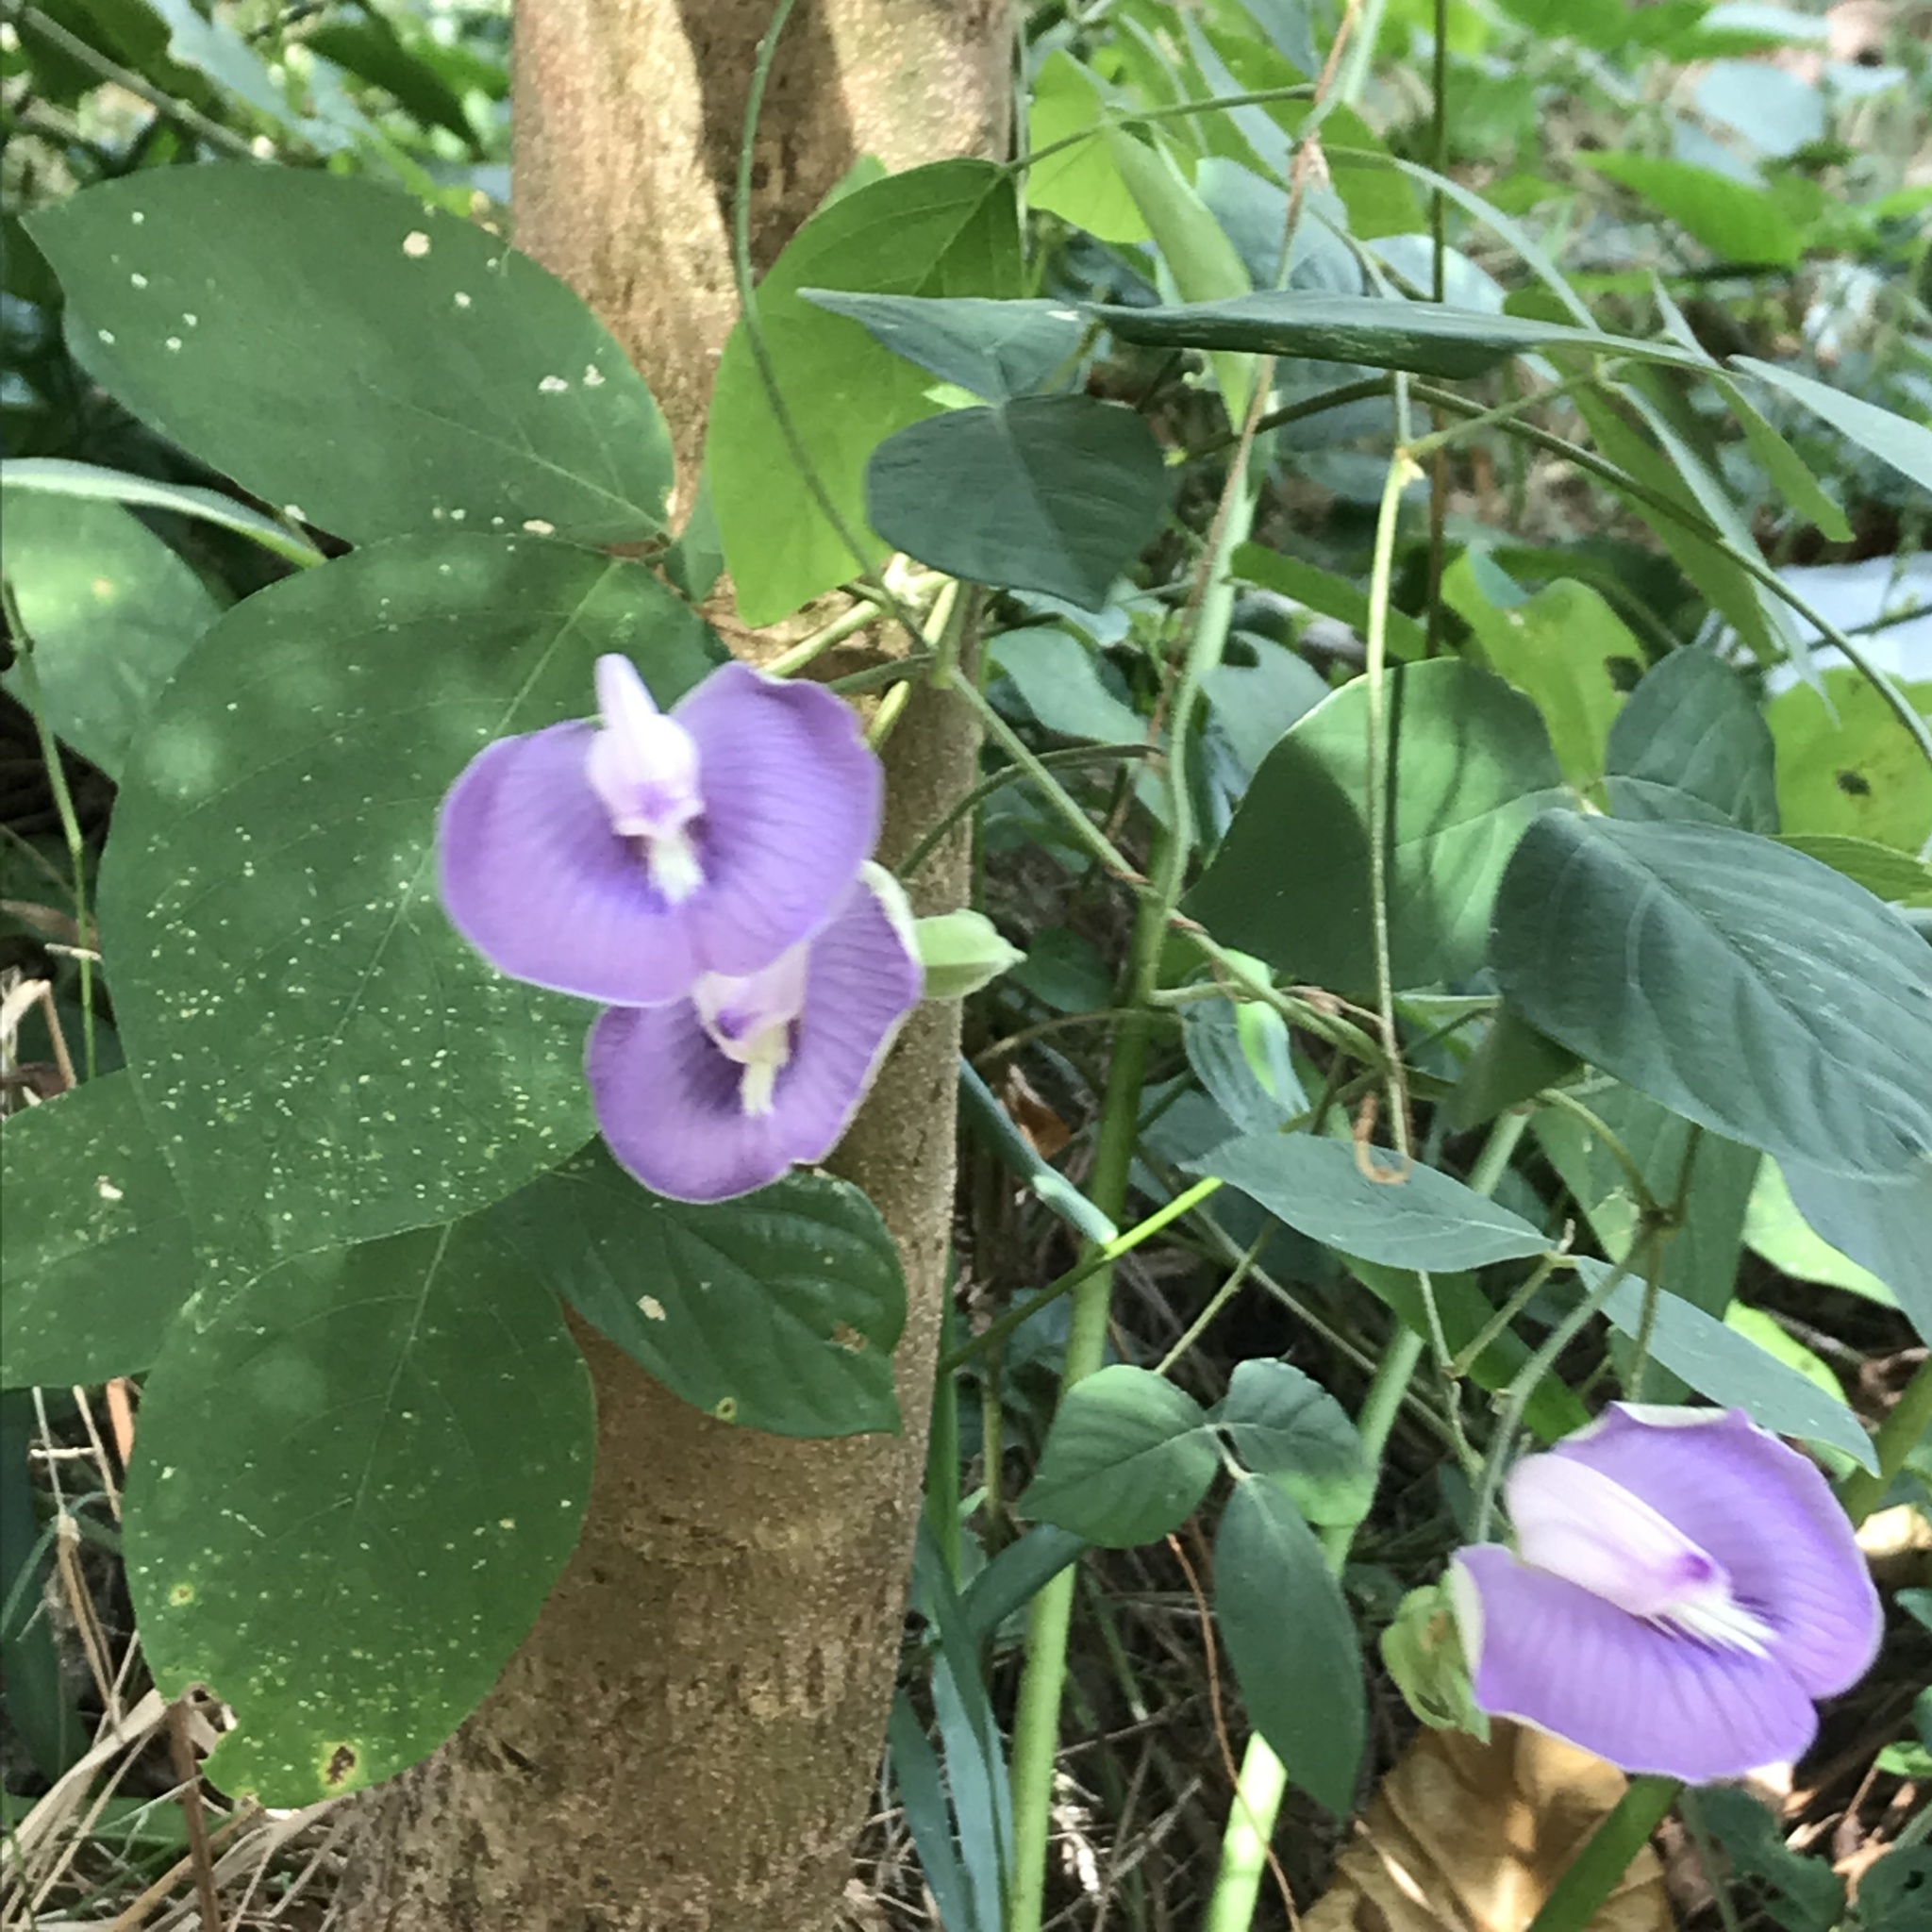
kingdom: Plantae
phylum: Tracheophyta
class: Magnoliopsida
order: Fabales
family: Fabaceae
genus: Centrosema
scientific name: Centrosema pubescens
